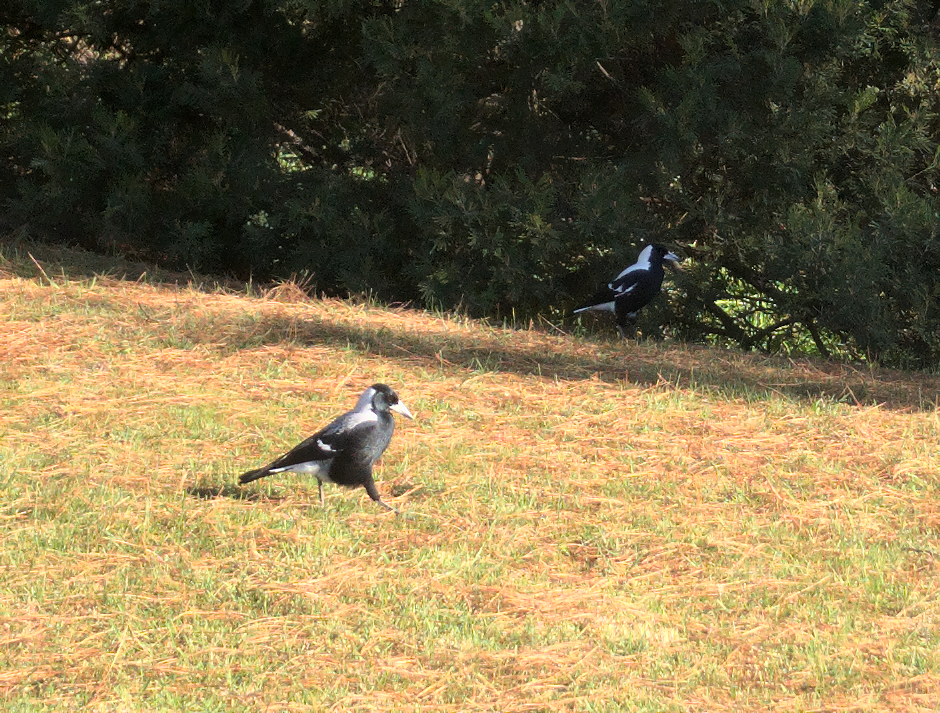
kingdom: Animalia
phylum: Chordata
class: Aves
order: Passeriformes
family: Cracticidae
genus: Gymnorhina
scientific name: Gymnorhina tibicen
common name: Australian magpie
